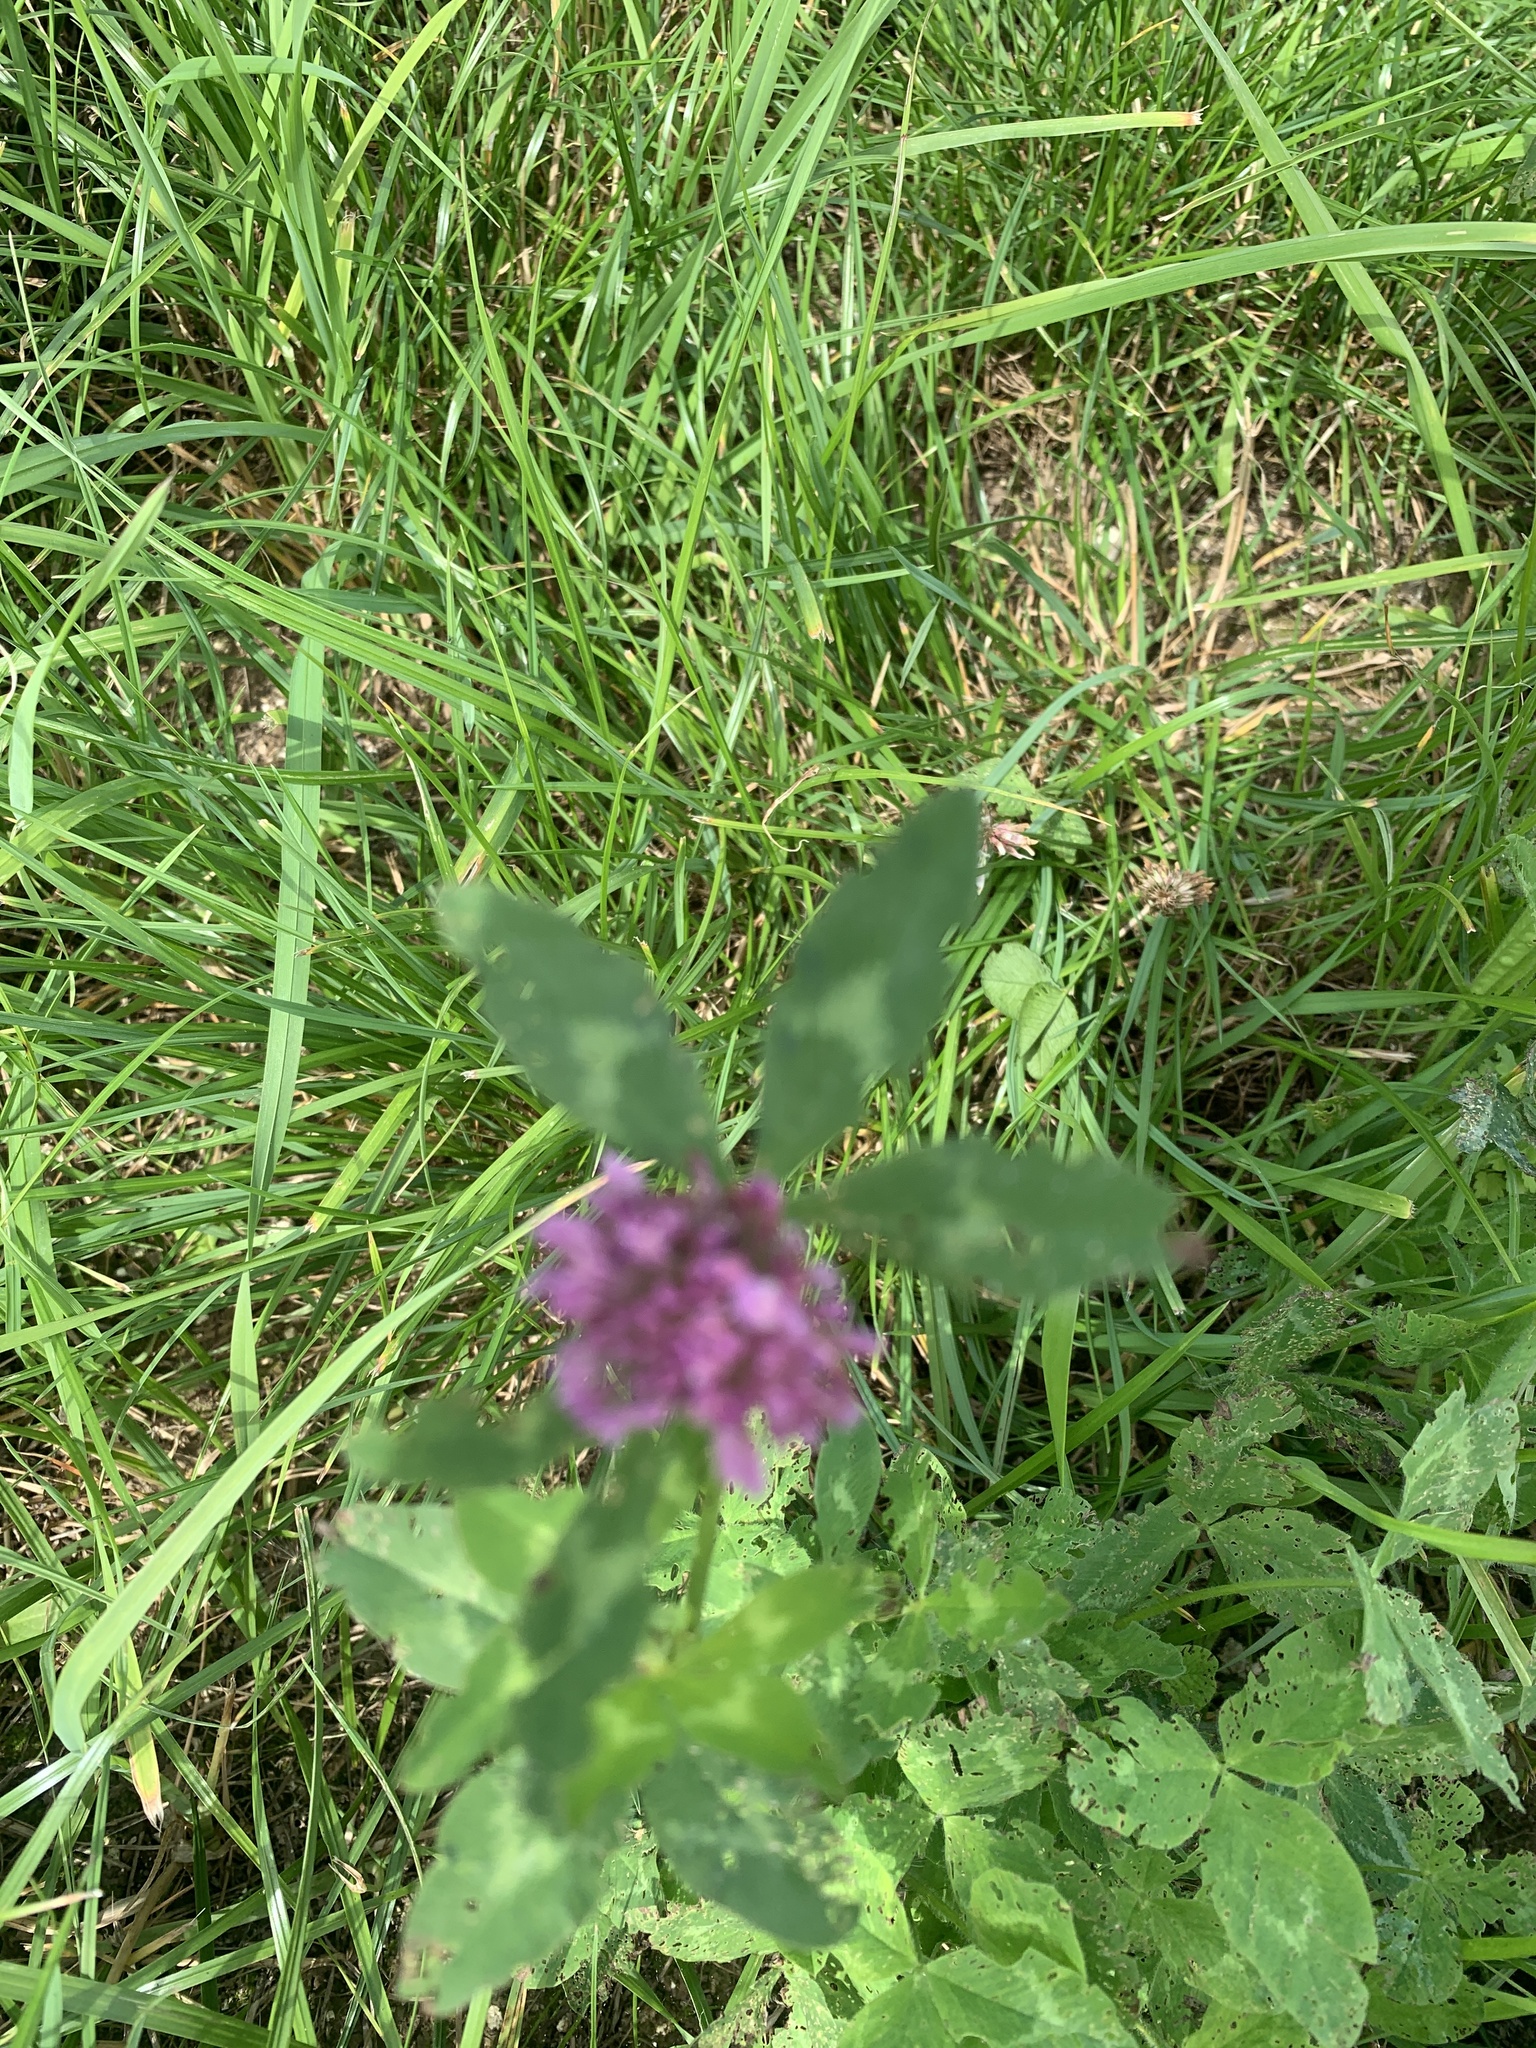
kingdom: Plantae
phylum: Tracheophyta
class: Magnoliopsida
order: Fabales
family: Fabaceae
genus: Trifolium
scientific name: Trifolium pratense
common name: Red clover
